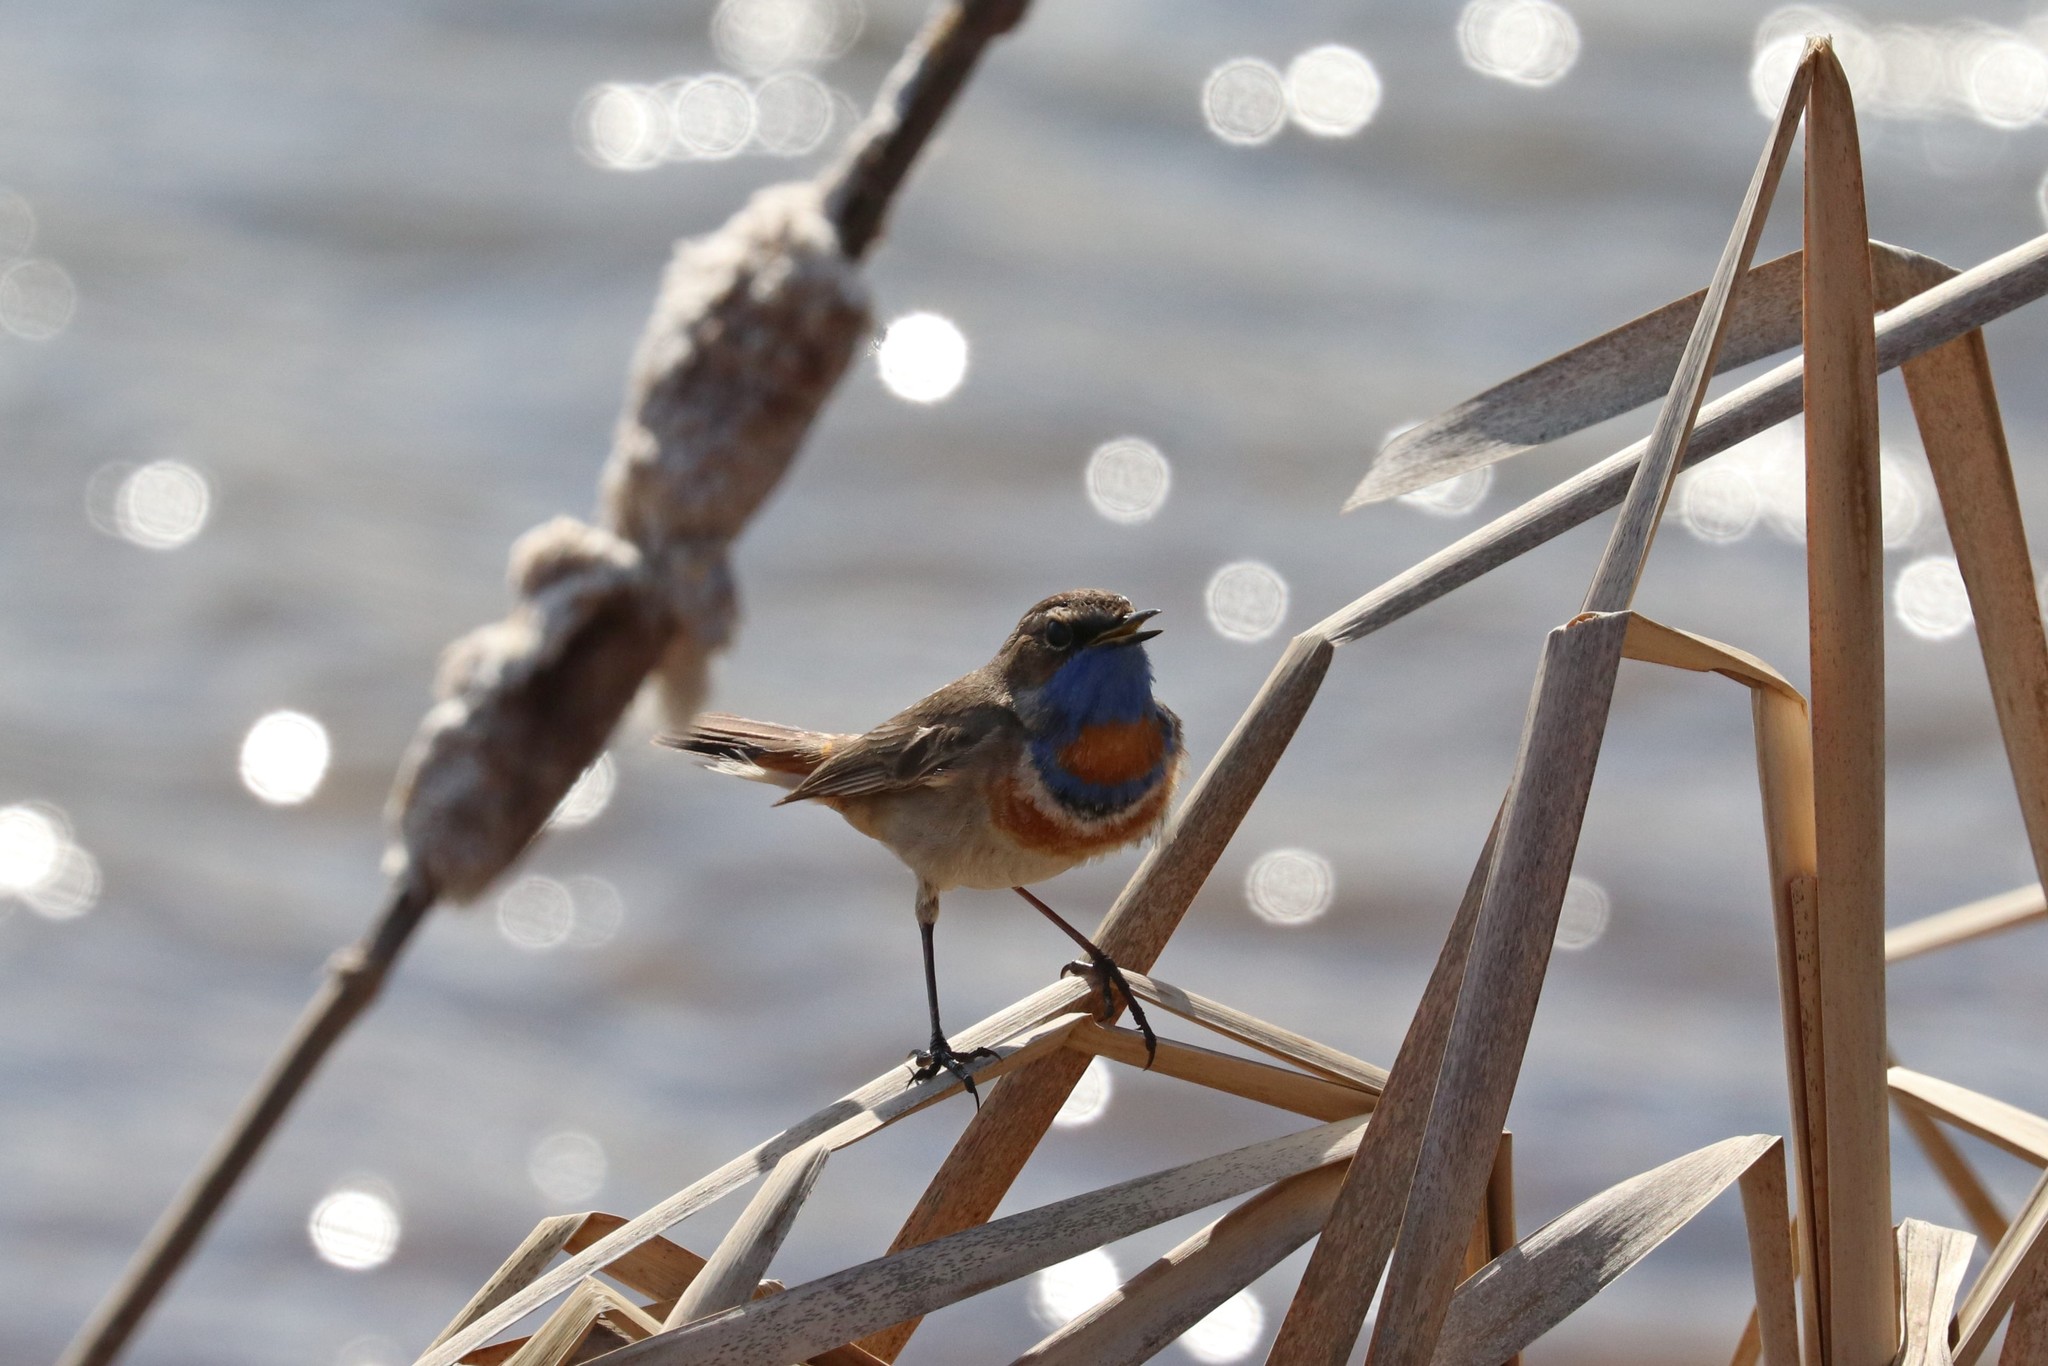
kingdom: Animalia
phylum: Chordata
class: Aves
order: Passeriformes
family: Muscicapidae
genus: Luscinia
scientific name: Luscinia svecica
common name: Bluethroat
